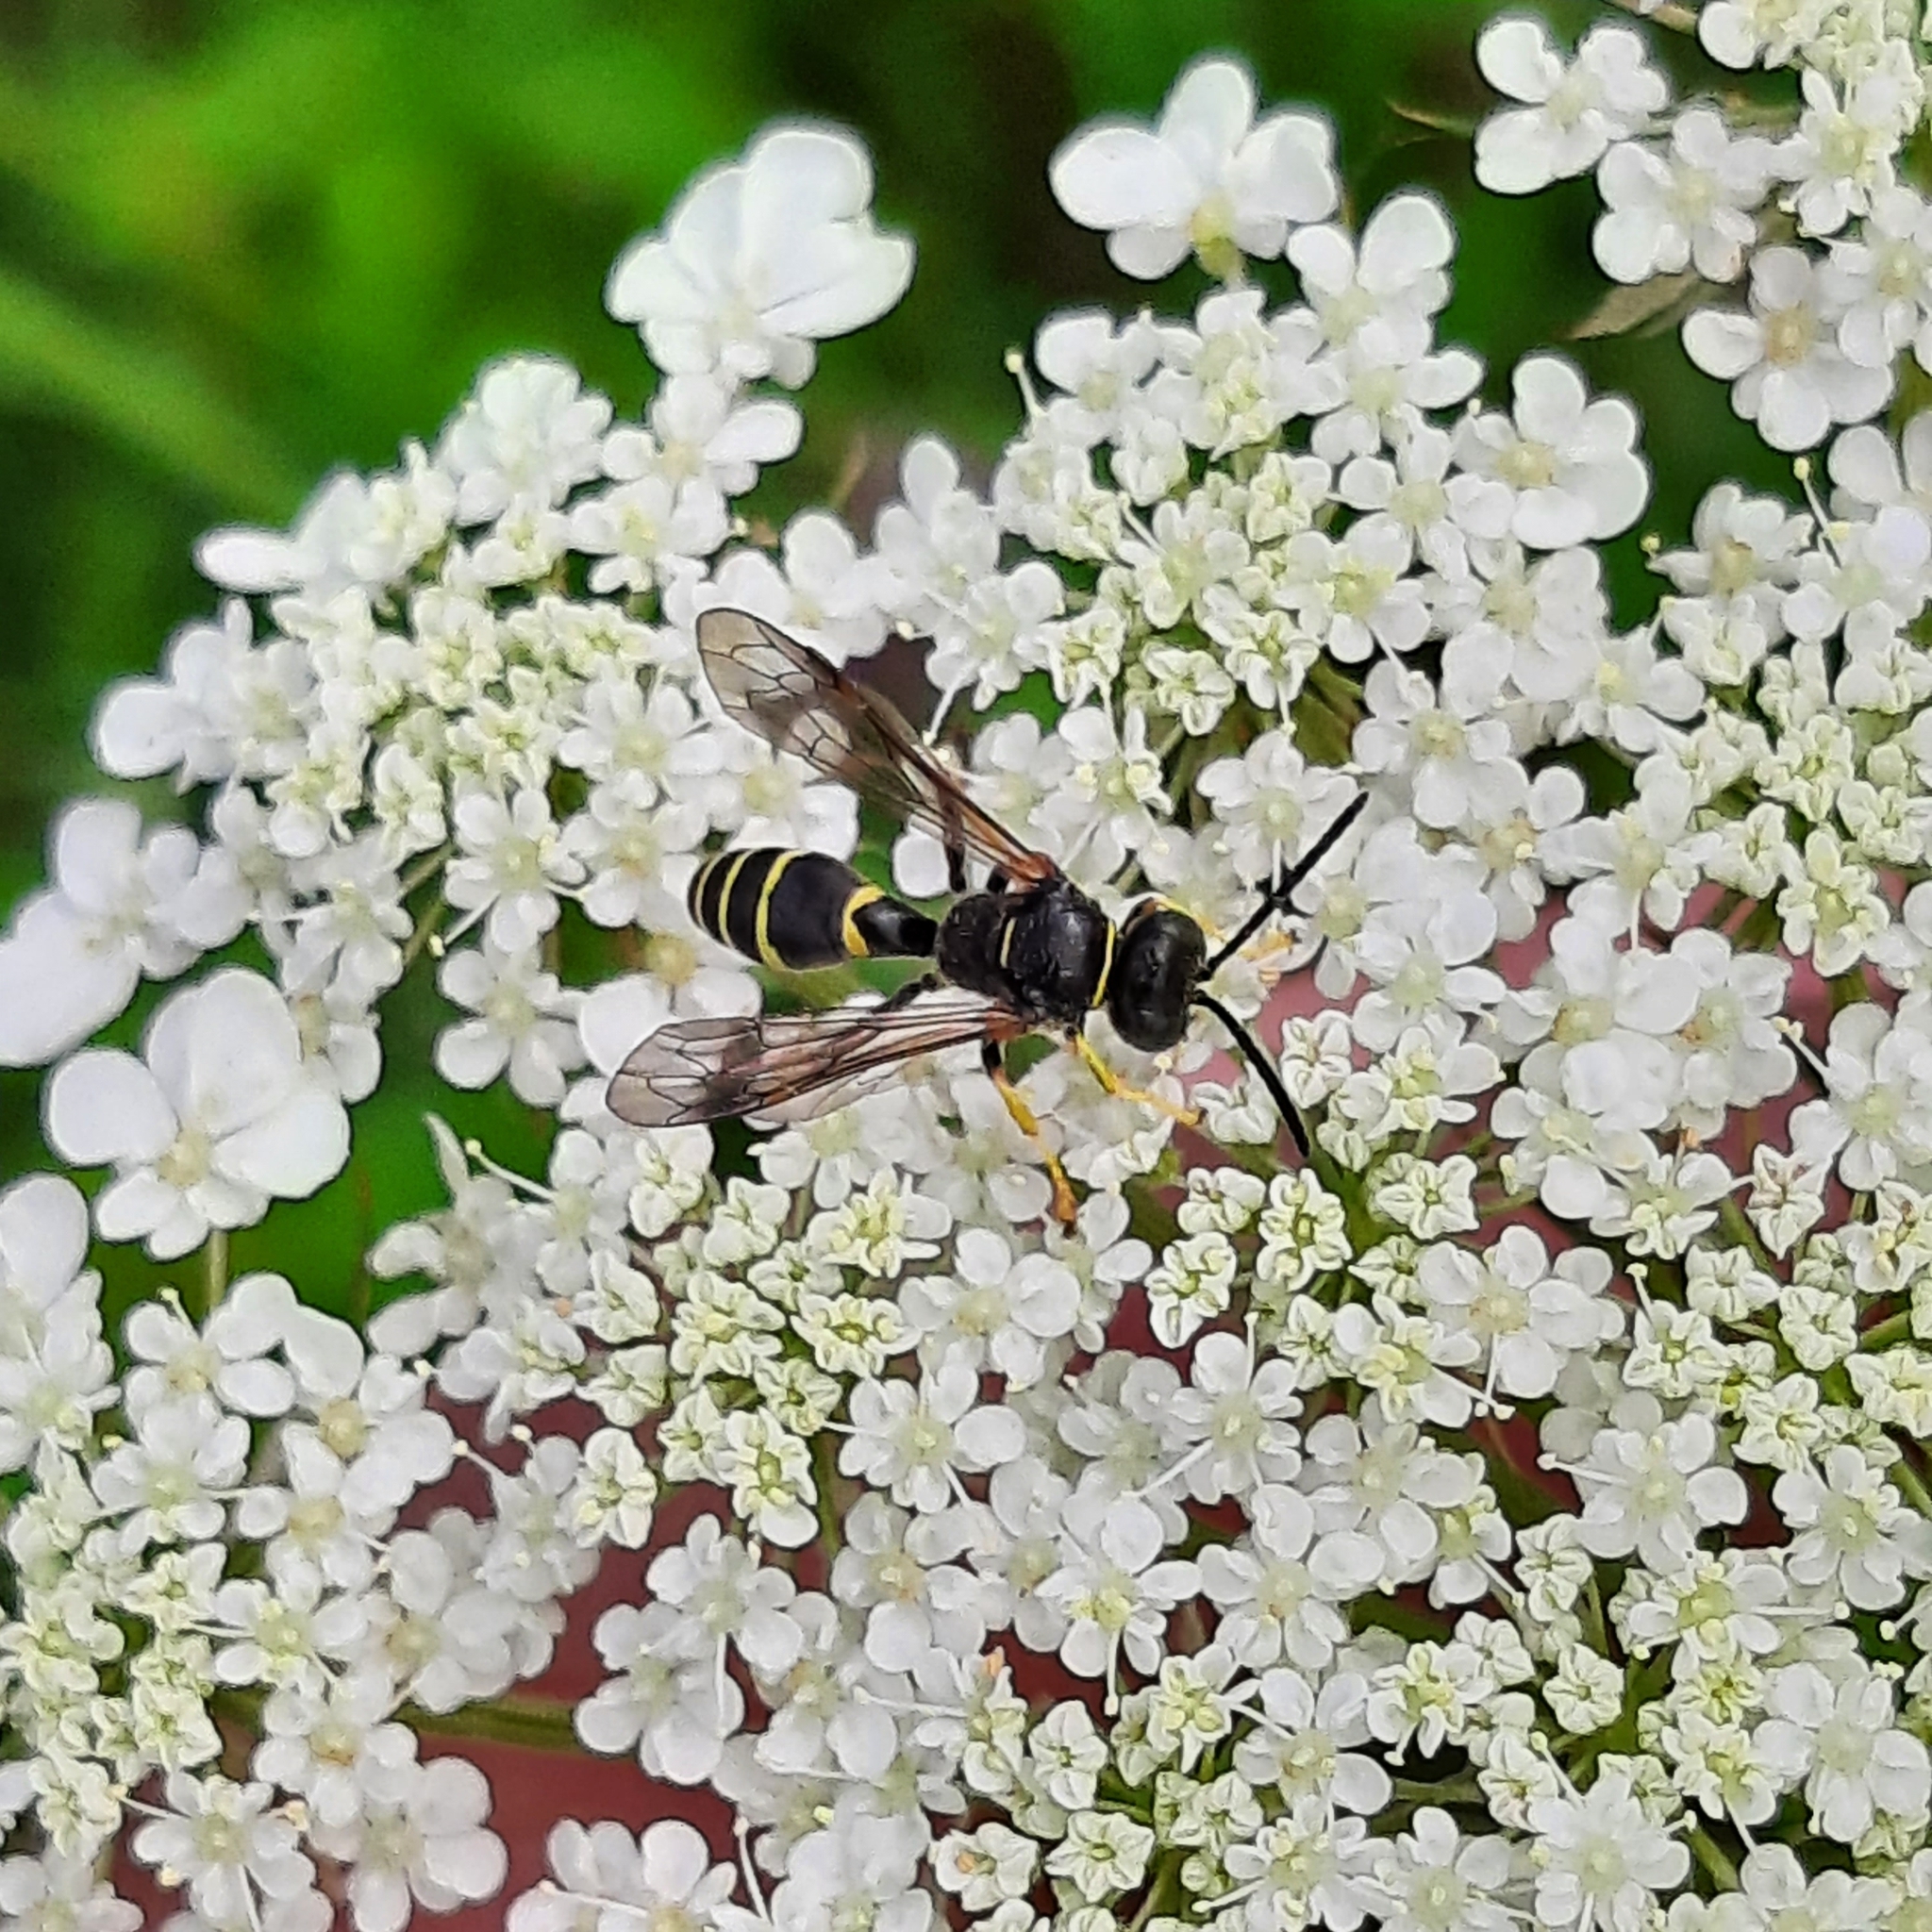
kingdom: Animalia
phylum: Arthropoda
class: Insecta
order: Hymenoptera
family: Crabronidae
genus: Gorytes
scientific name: Gorytes
